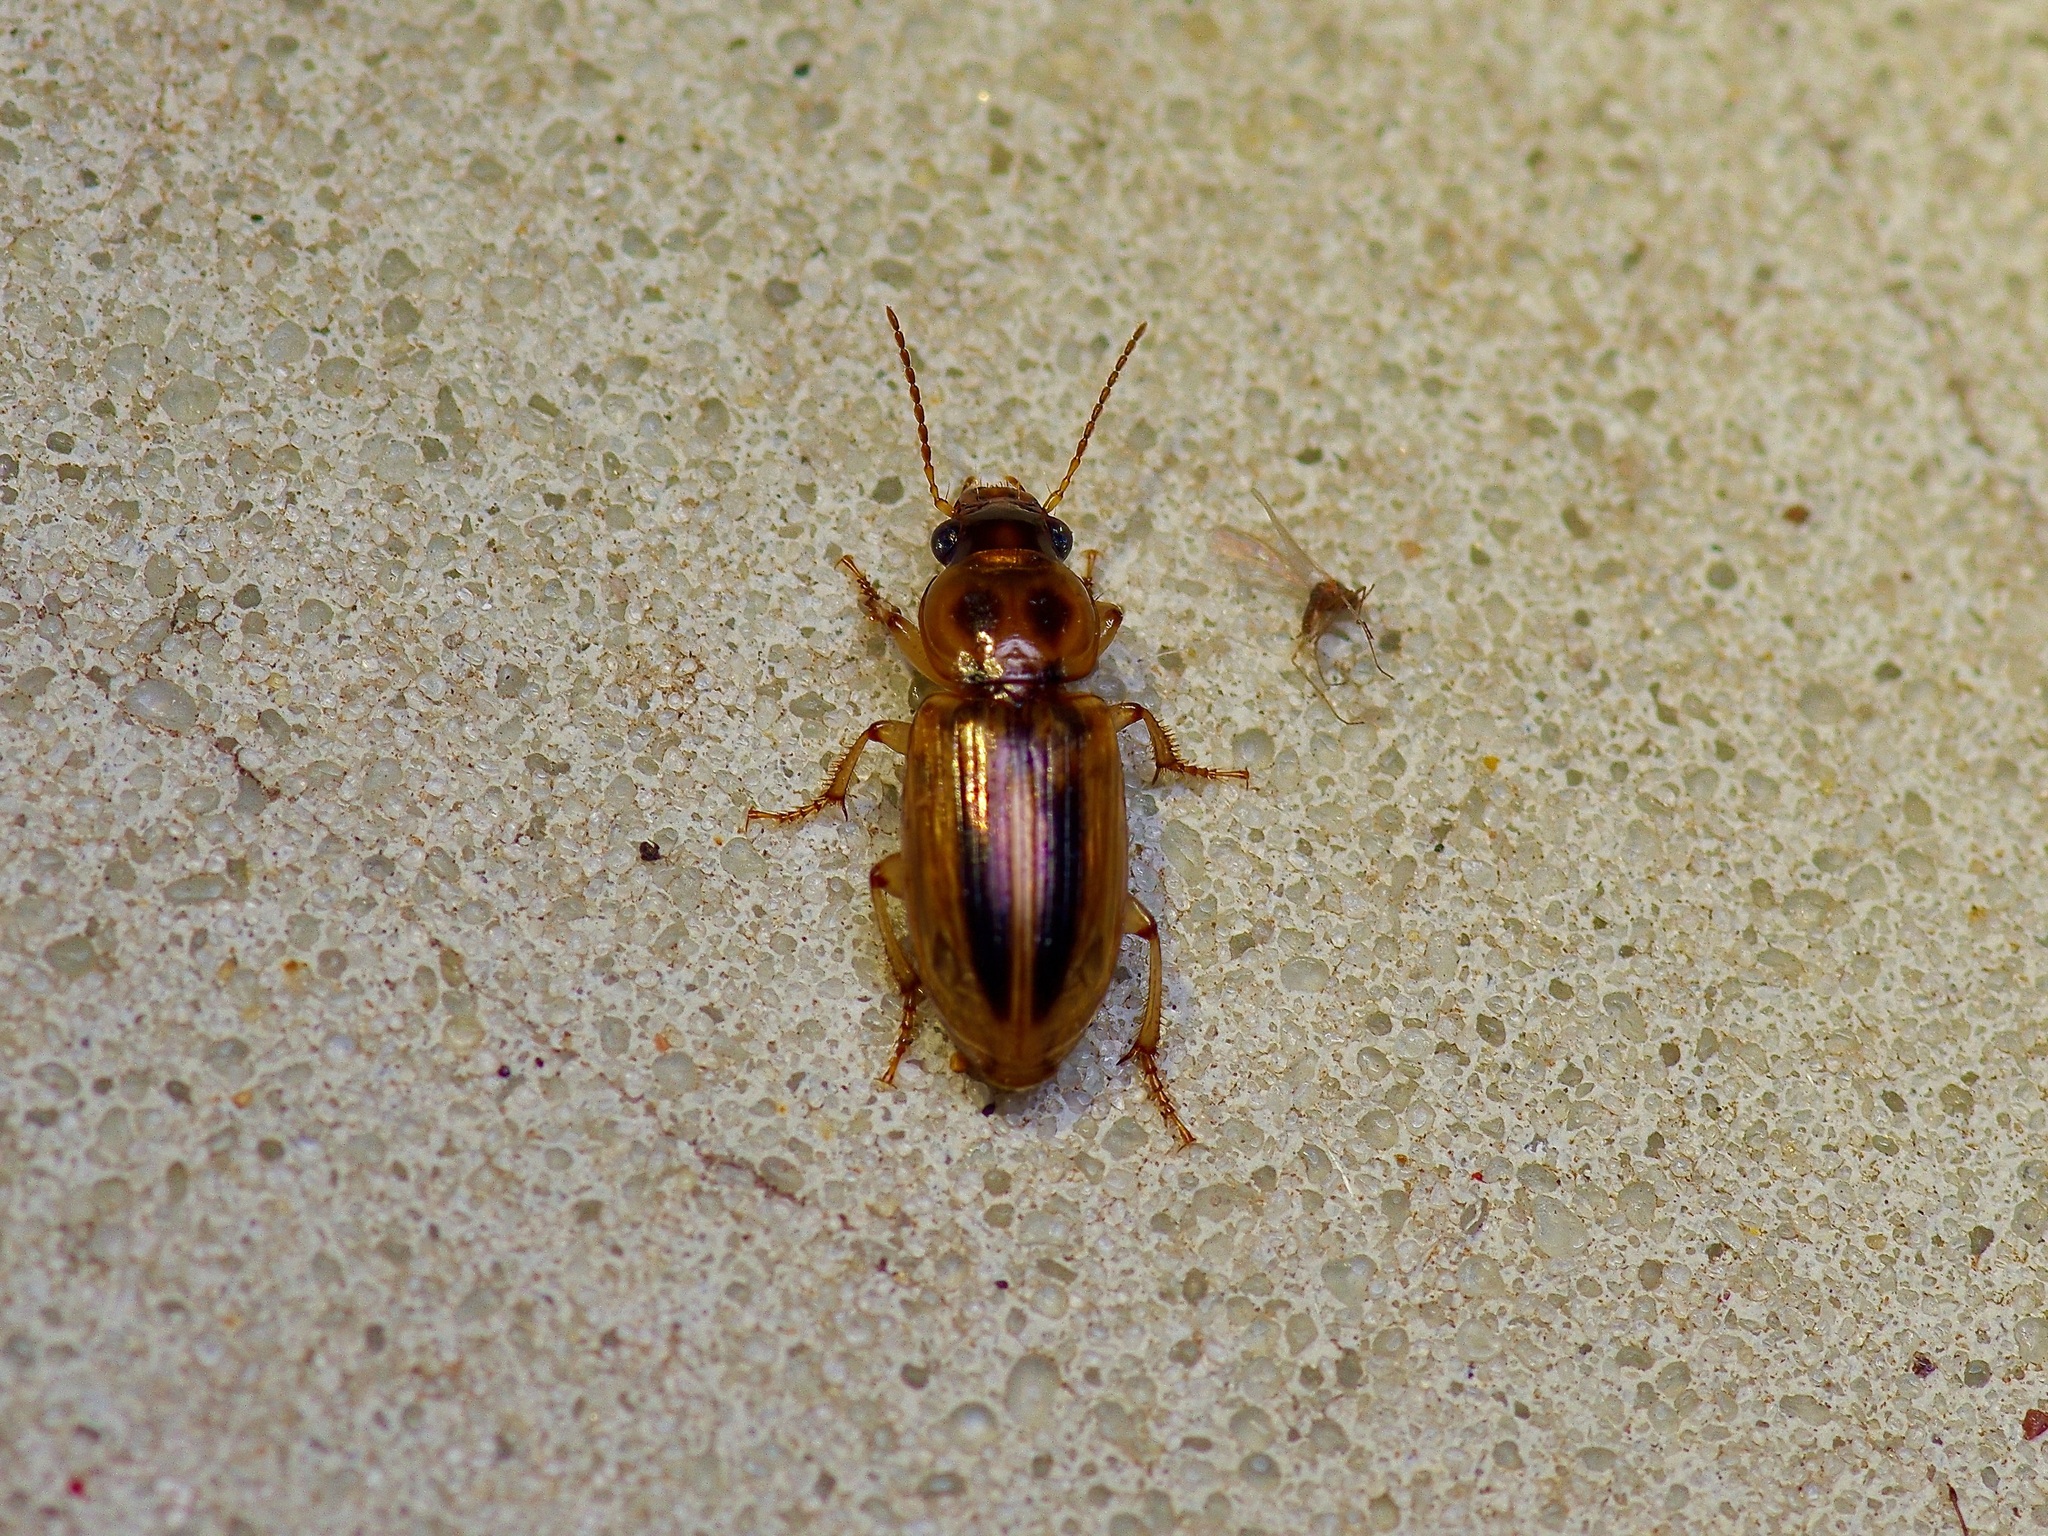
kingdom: Animalia
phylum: Arthropoda
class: Insecta
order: Coleoptera
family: Carabidae
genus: Stenolophus
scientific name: Stenolophus lineola
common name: Lined stenolophus
